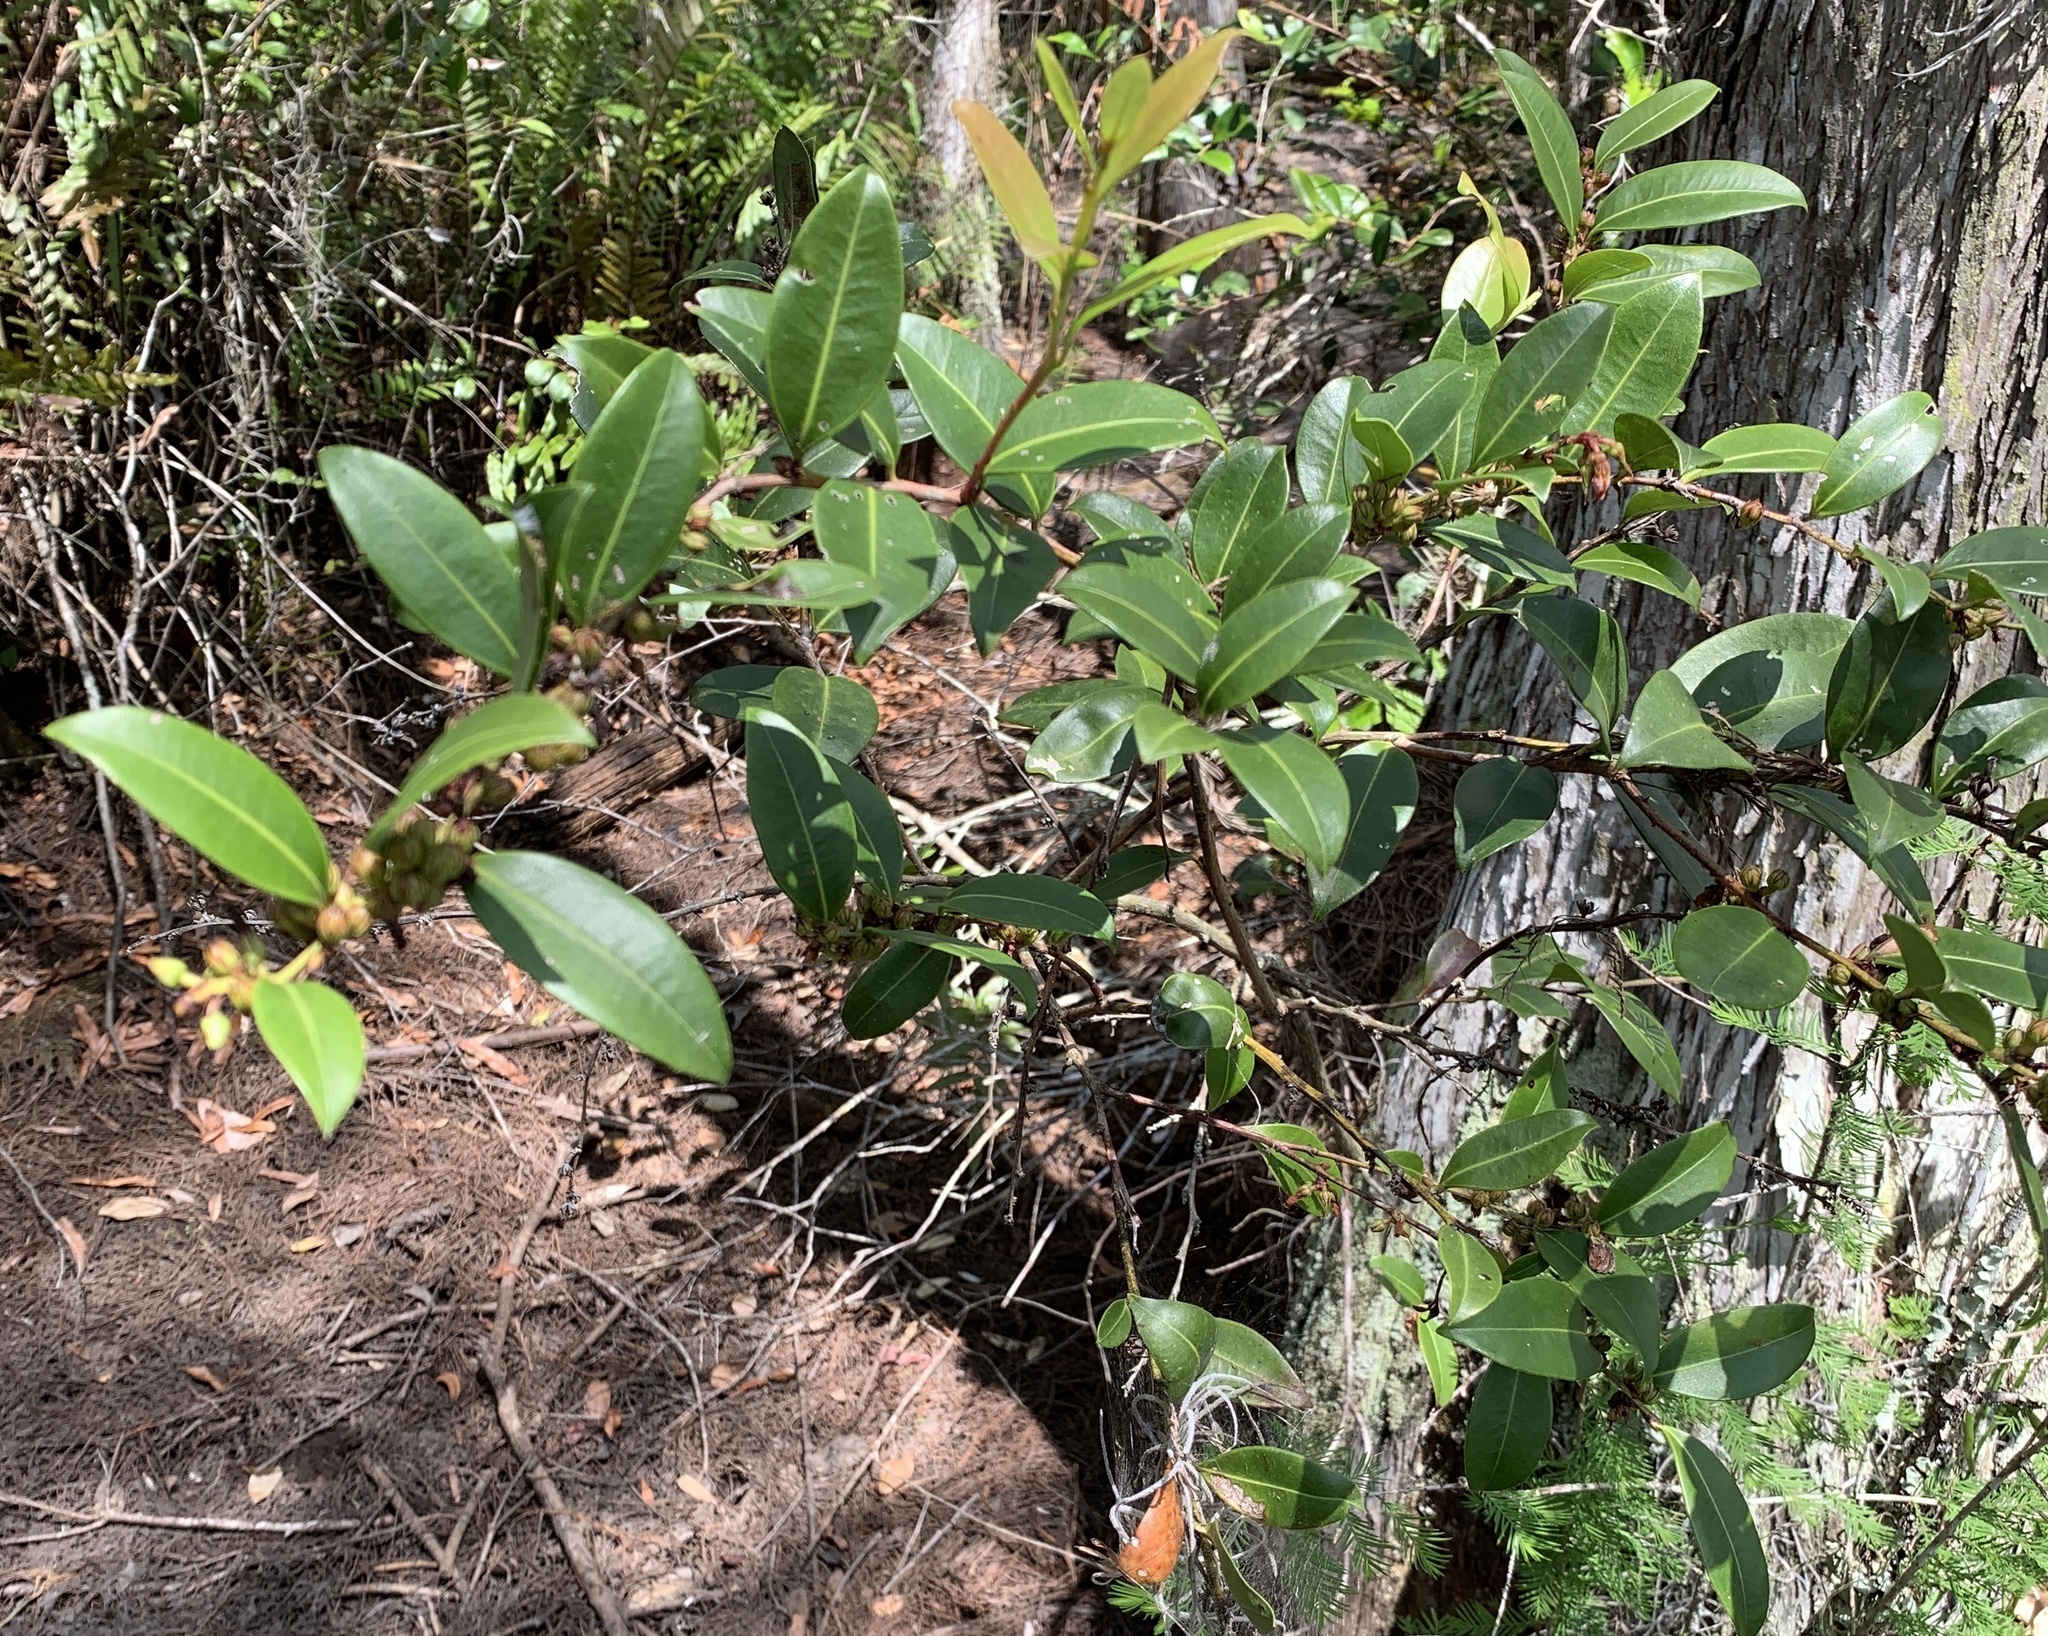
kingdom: Plantae
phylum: Tracheophyta
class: Magnoliopsida
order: Ericales
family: Ericaceae
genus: Lyonia
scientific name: Lyonia lucida
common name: Fetterbush
